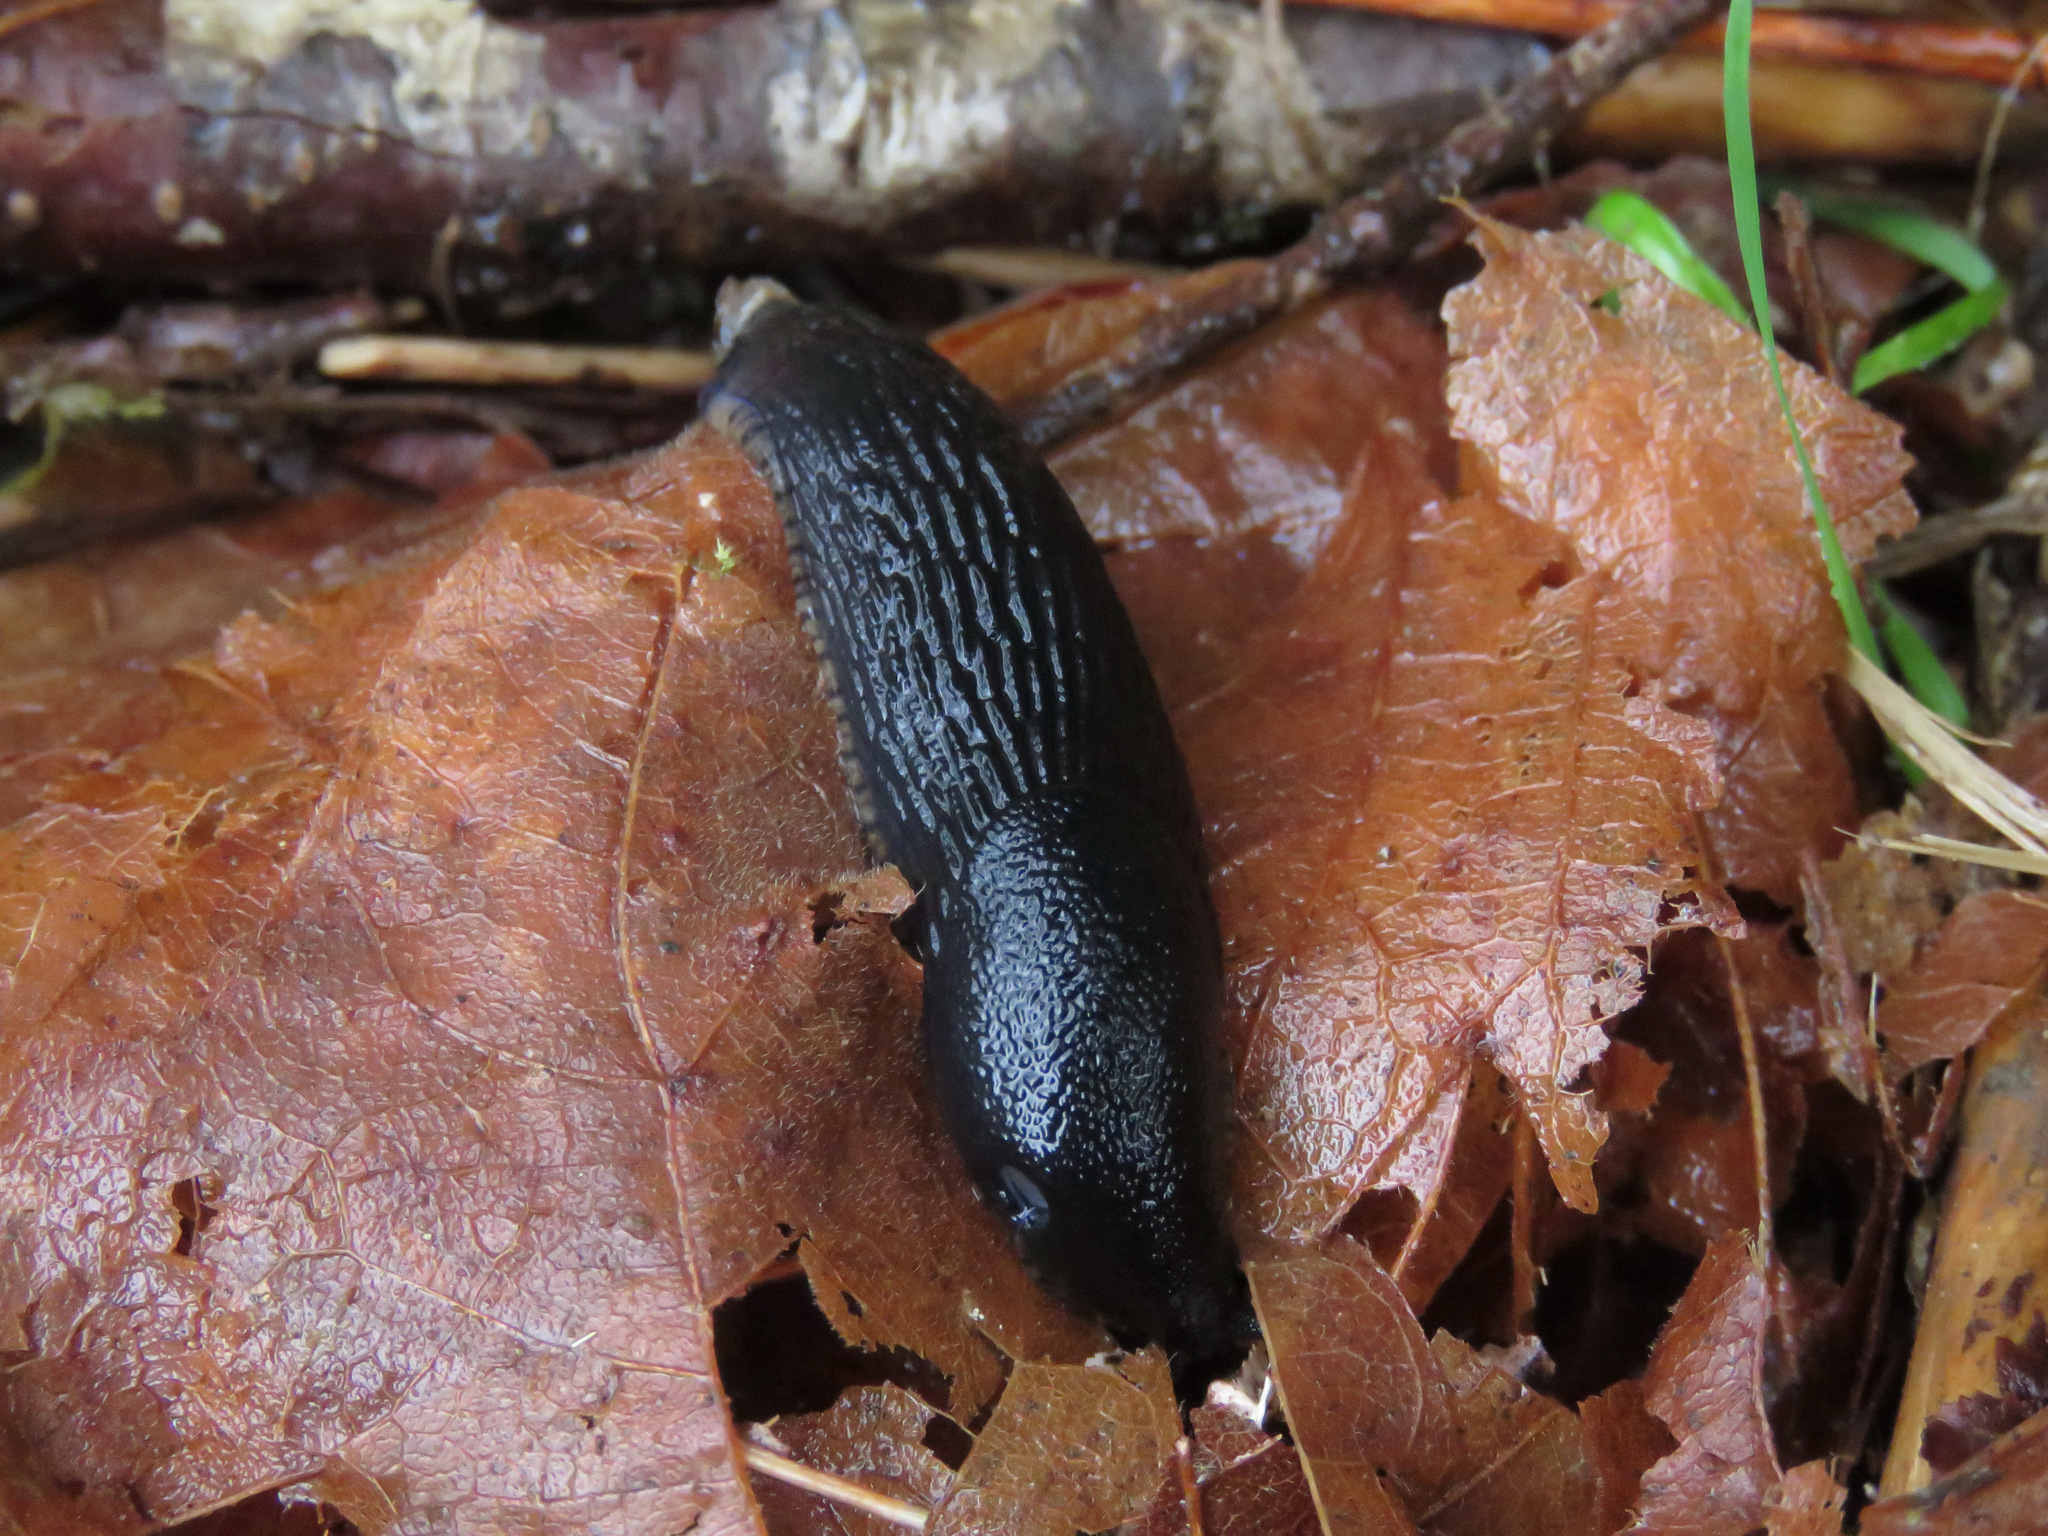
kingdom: Animalia
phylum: Mollusca
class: Gastropoda
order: Stylommatophora
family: Arionidae
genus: Arion
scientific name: Arion
